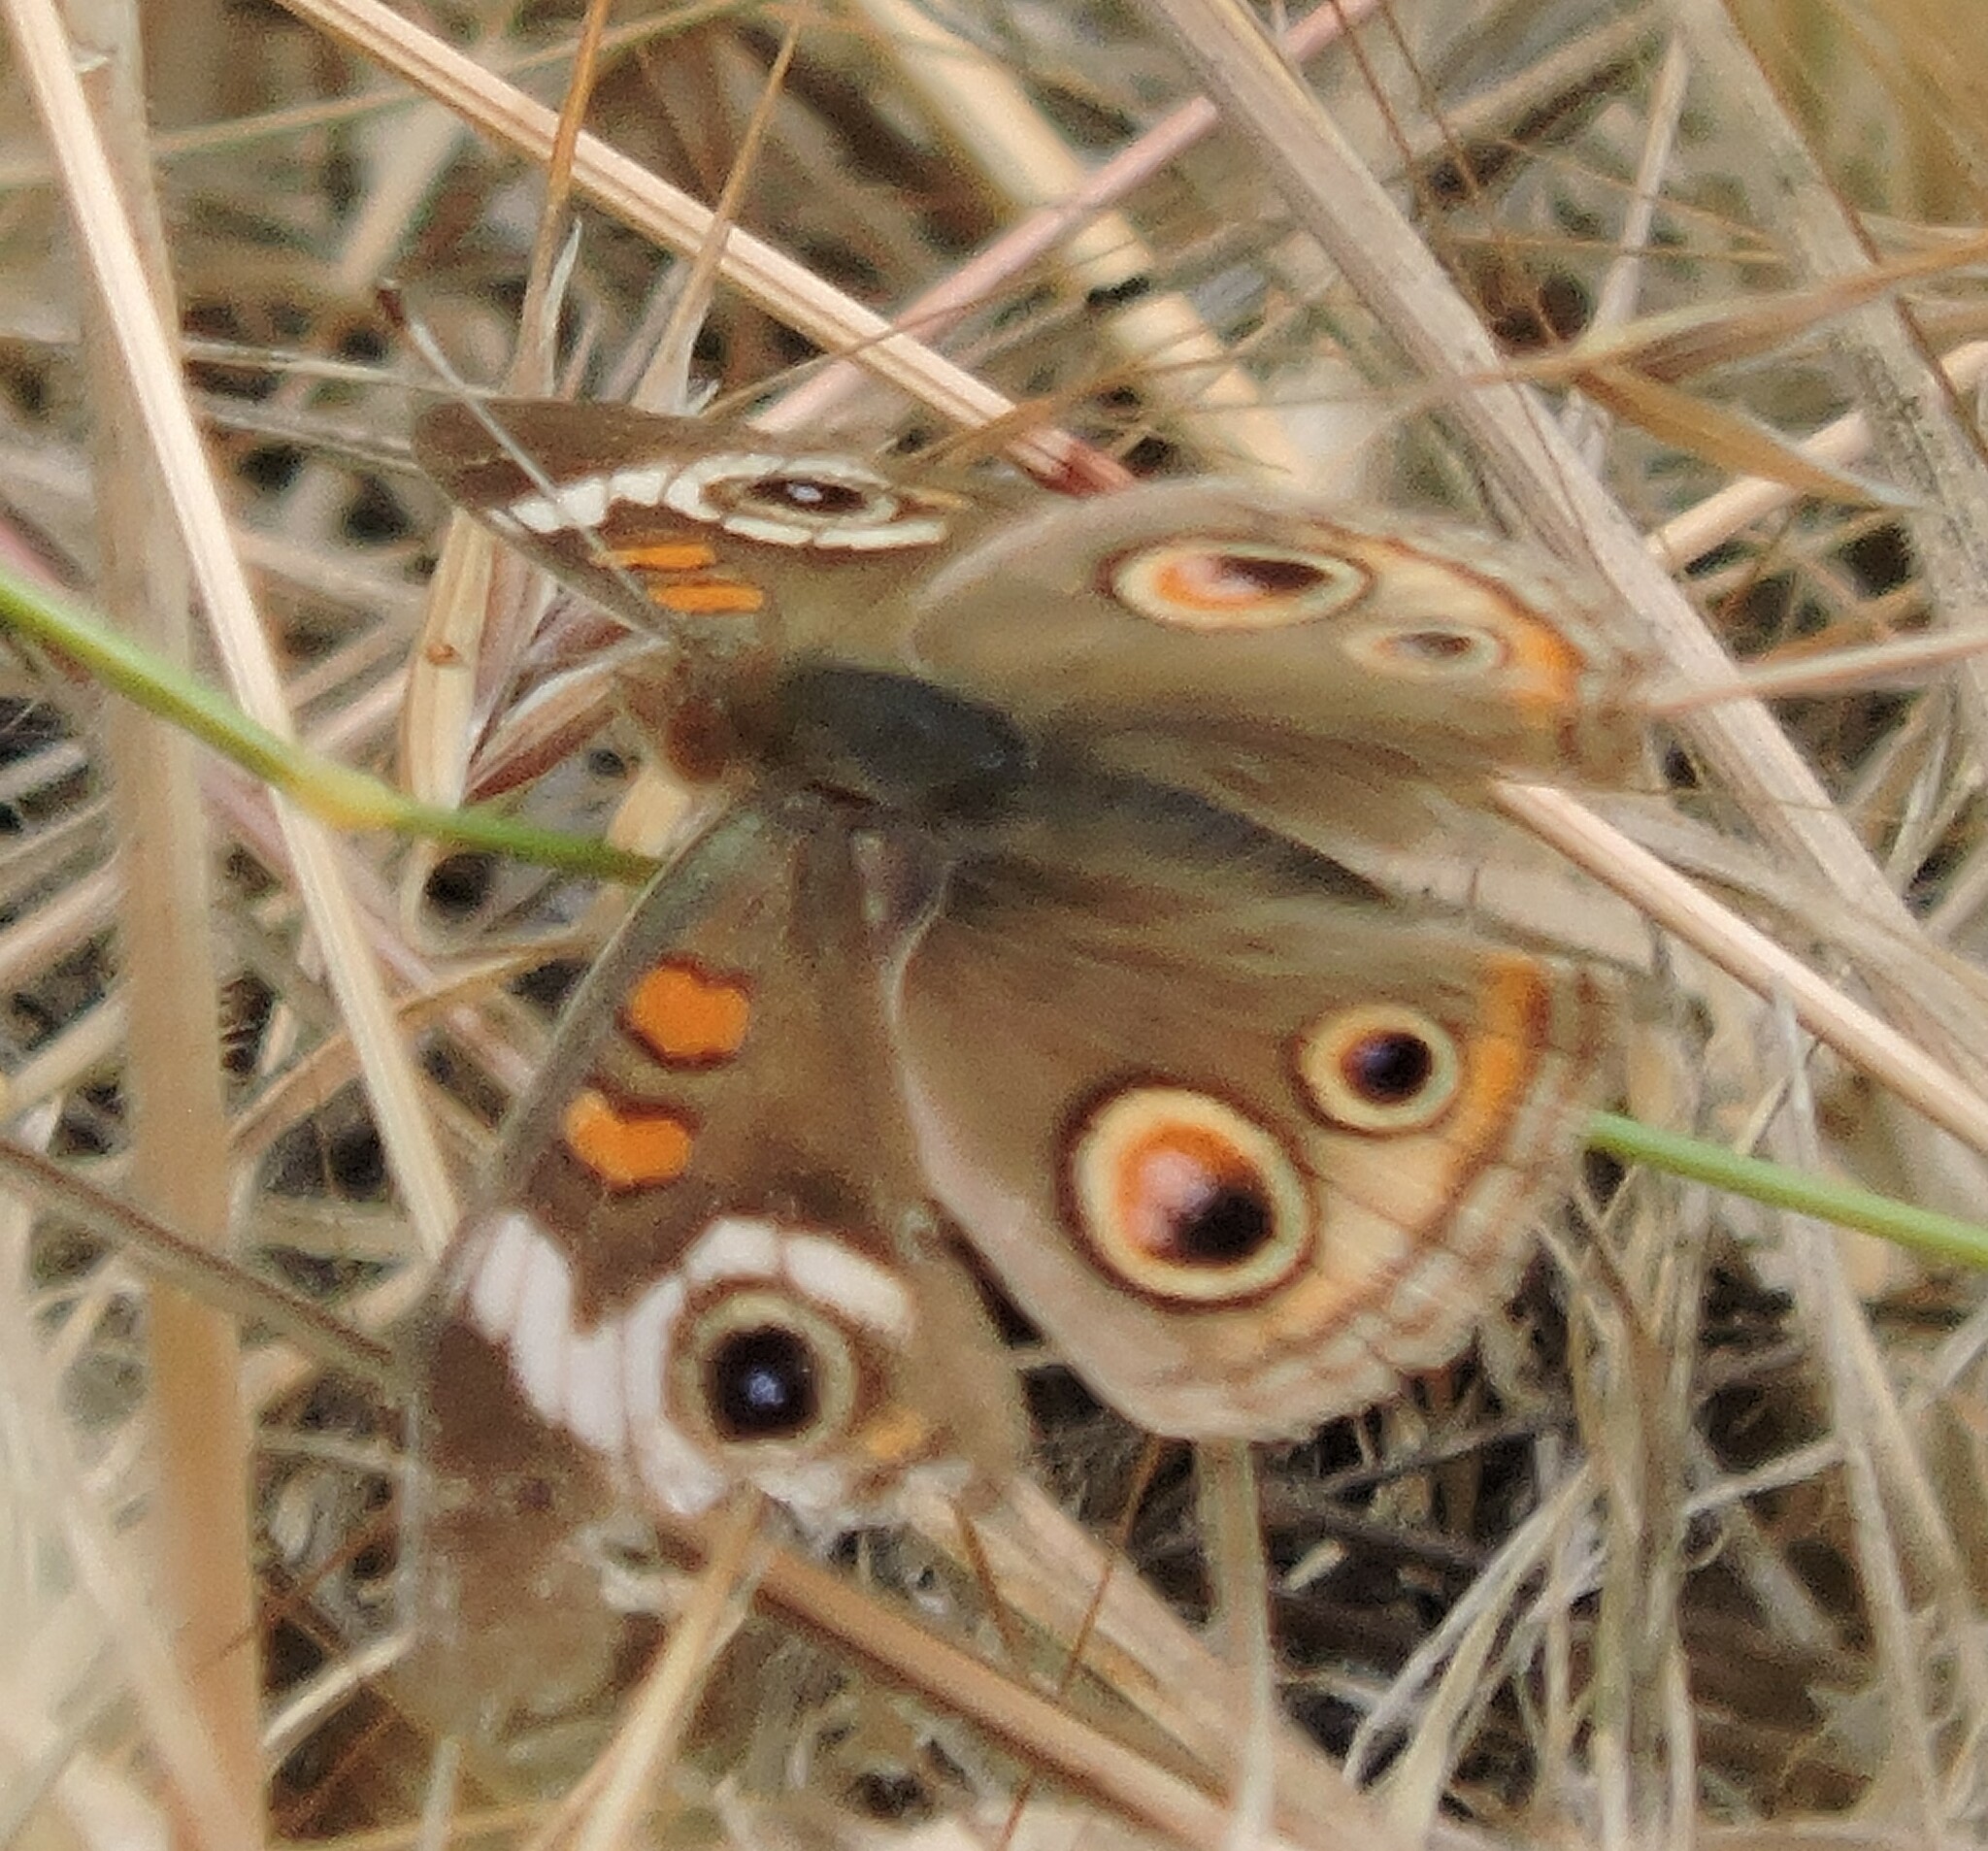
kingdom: Animalia
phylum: Arthropoda
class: Insecta
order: Lepidoptera
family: Nymphalidae
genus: Junonia
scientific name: Junonia grisea
